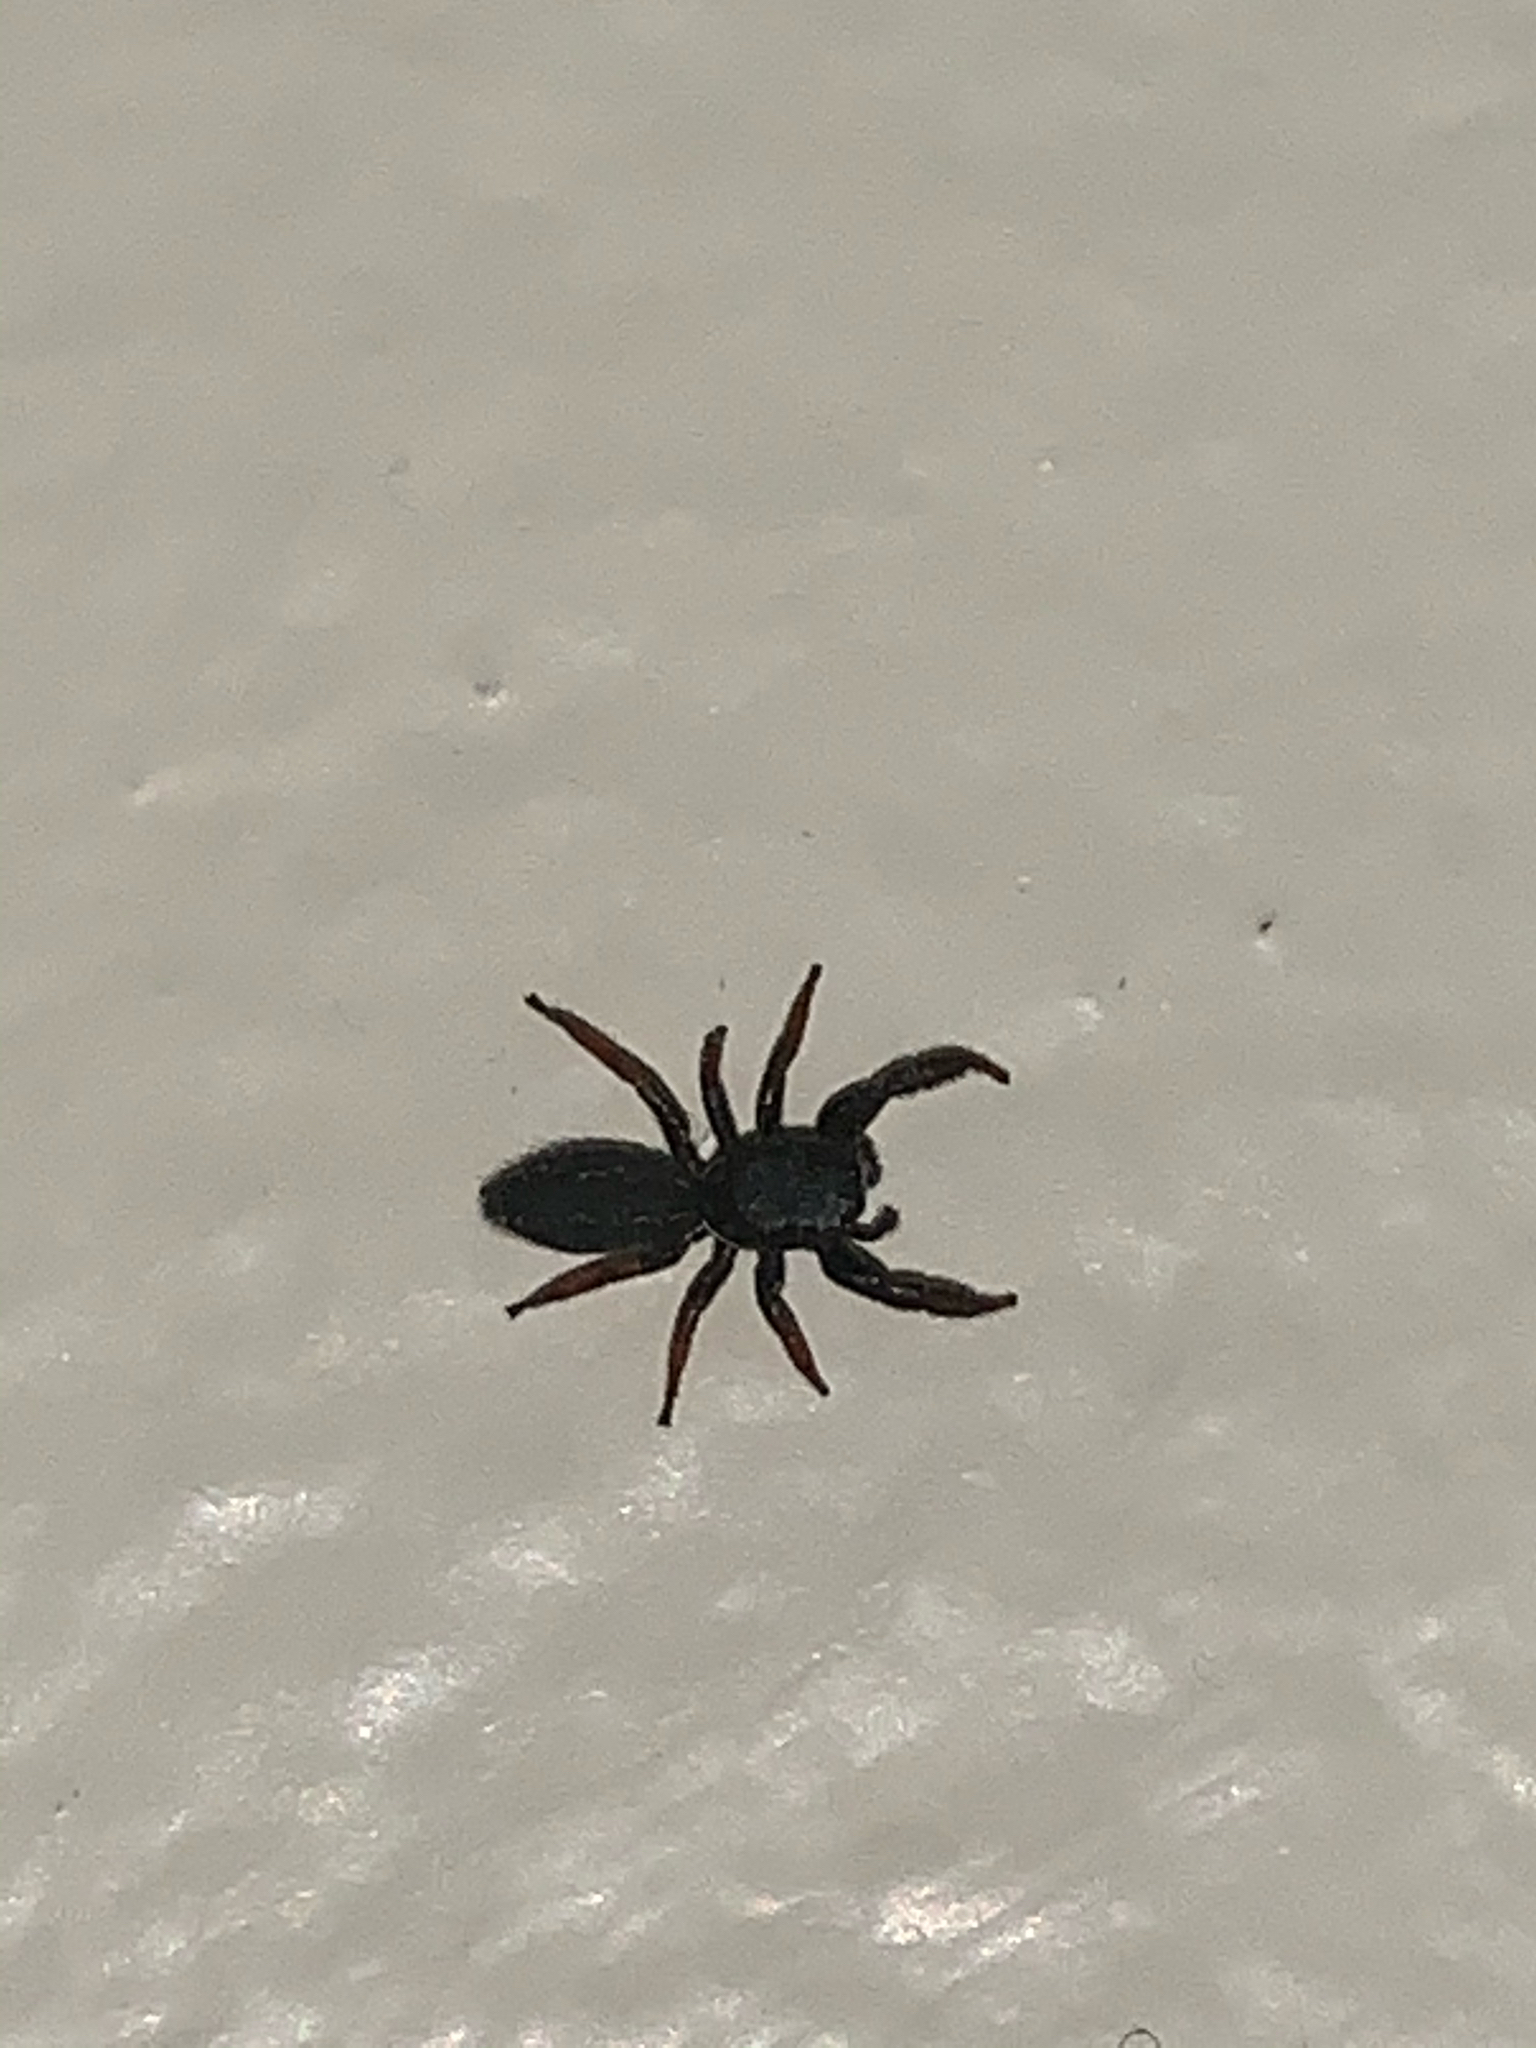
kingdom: Animalia
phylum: Arthropoda
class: Arachnida
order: Araneae
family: Salticidae
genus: Metacyrba
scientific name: Metacyrba taeniola
